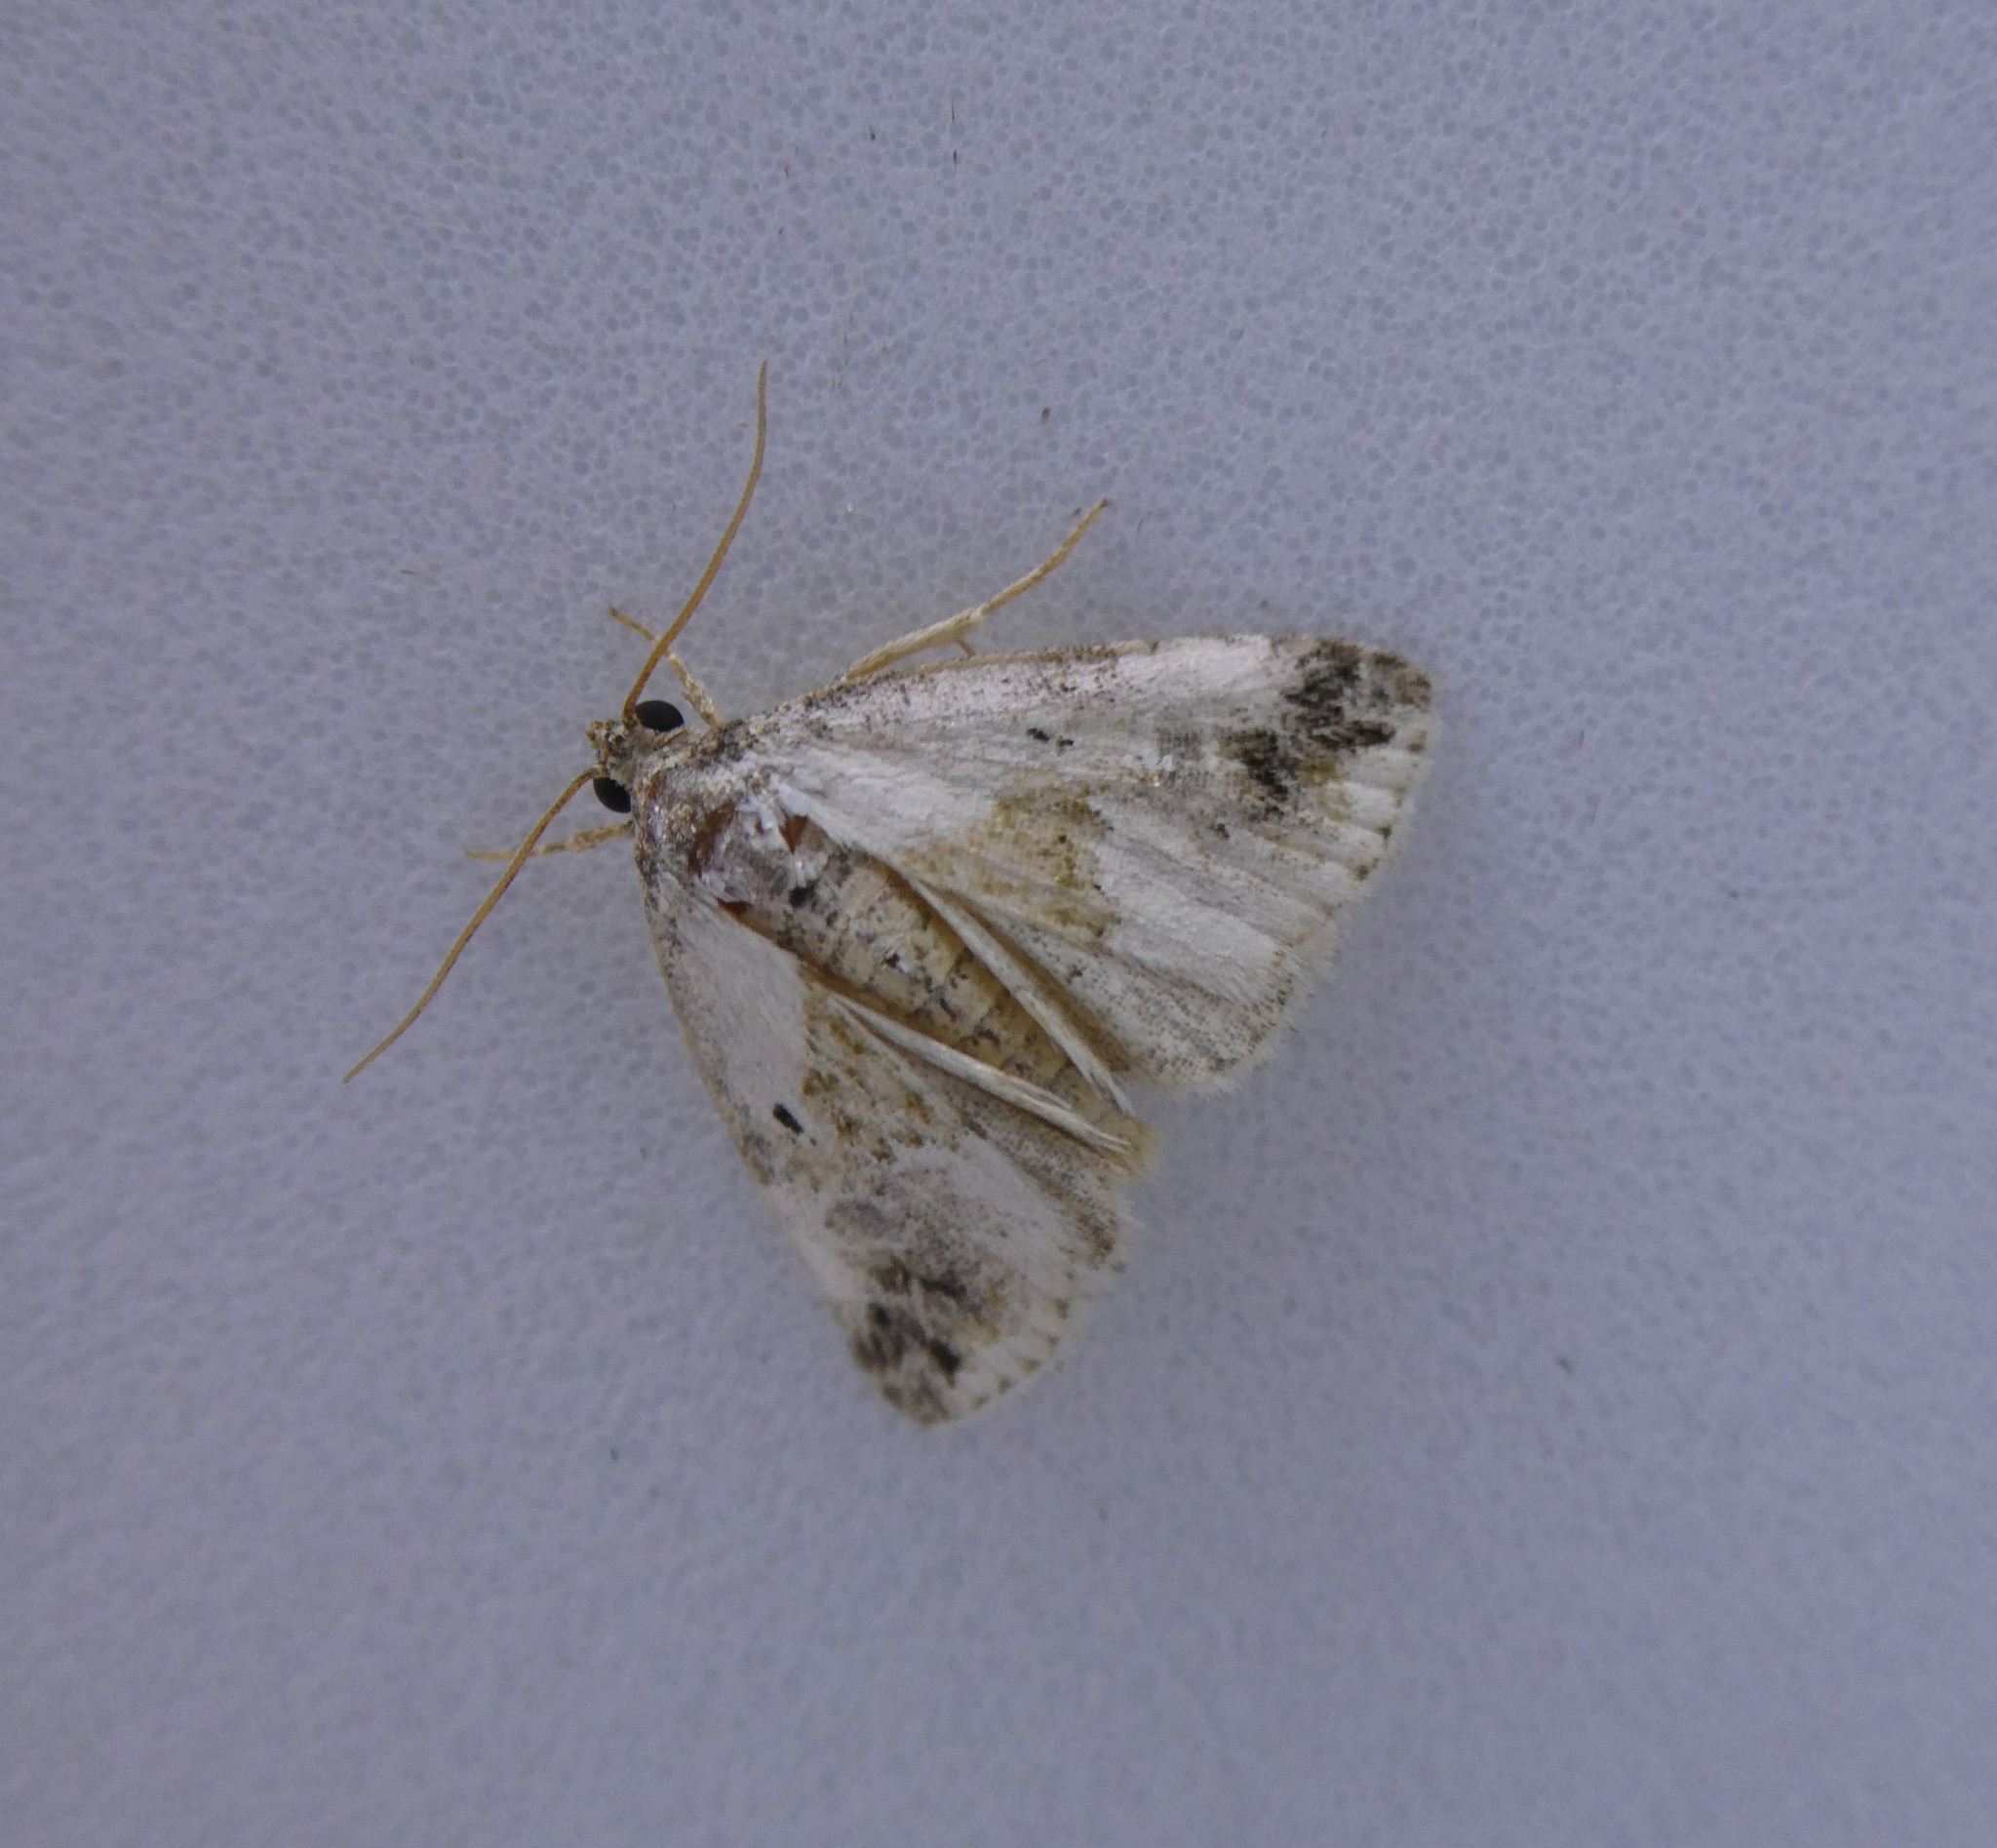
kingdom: Animalia
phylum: Arthropoda
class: Insecta
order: Lepidoptera
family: Noctuidae
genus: Maliattha
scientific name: Maliattha synochitis
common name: Black-dotted glyph
